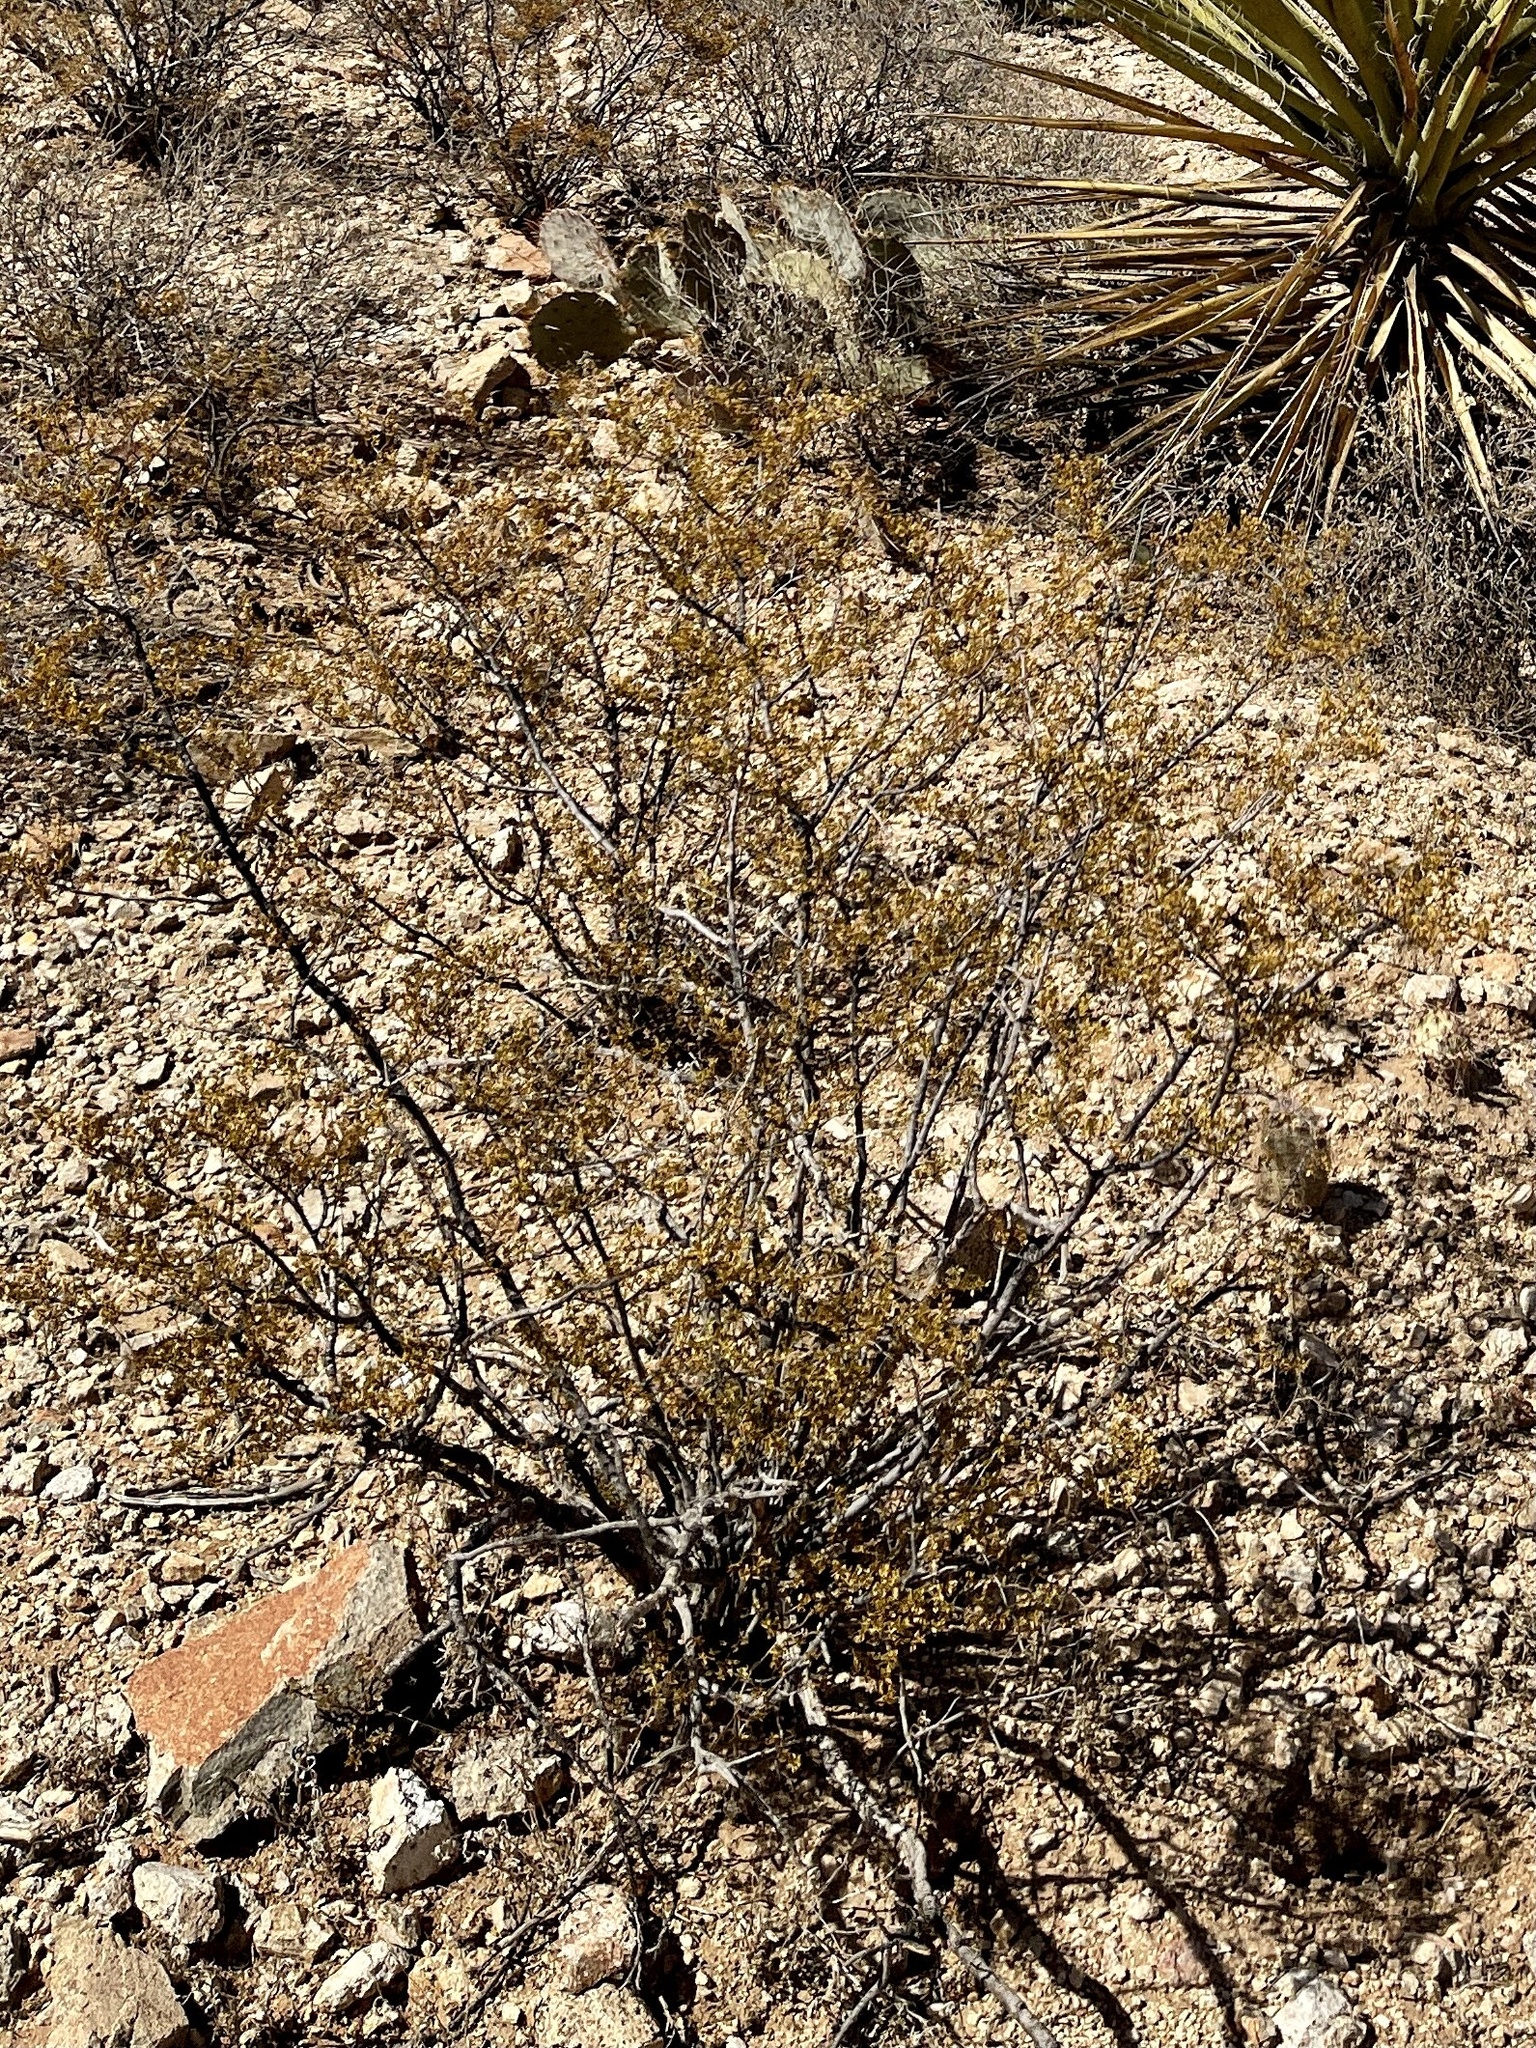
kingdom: Plantae
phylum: Tracheophyta
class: Magnoliopsida
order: Zygophyllales
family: Zygophyllaceae
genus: Larrea
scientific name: Larrea tridentata
